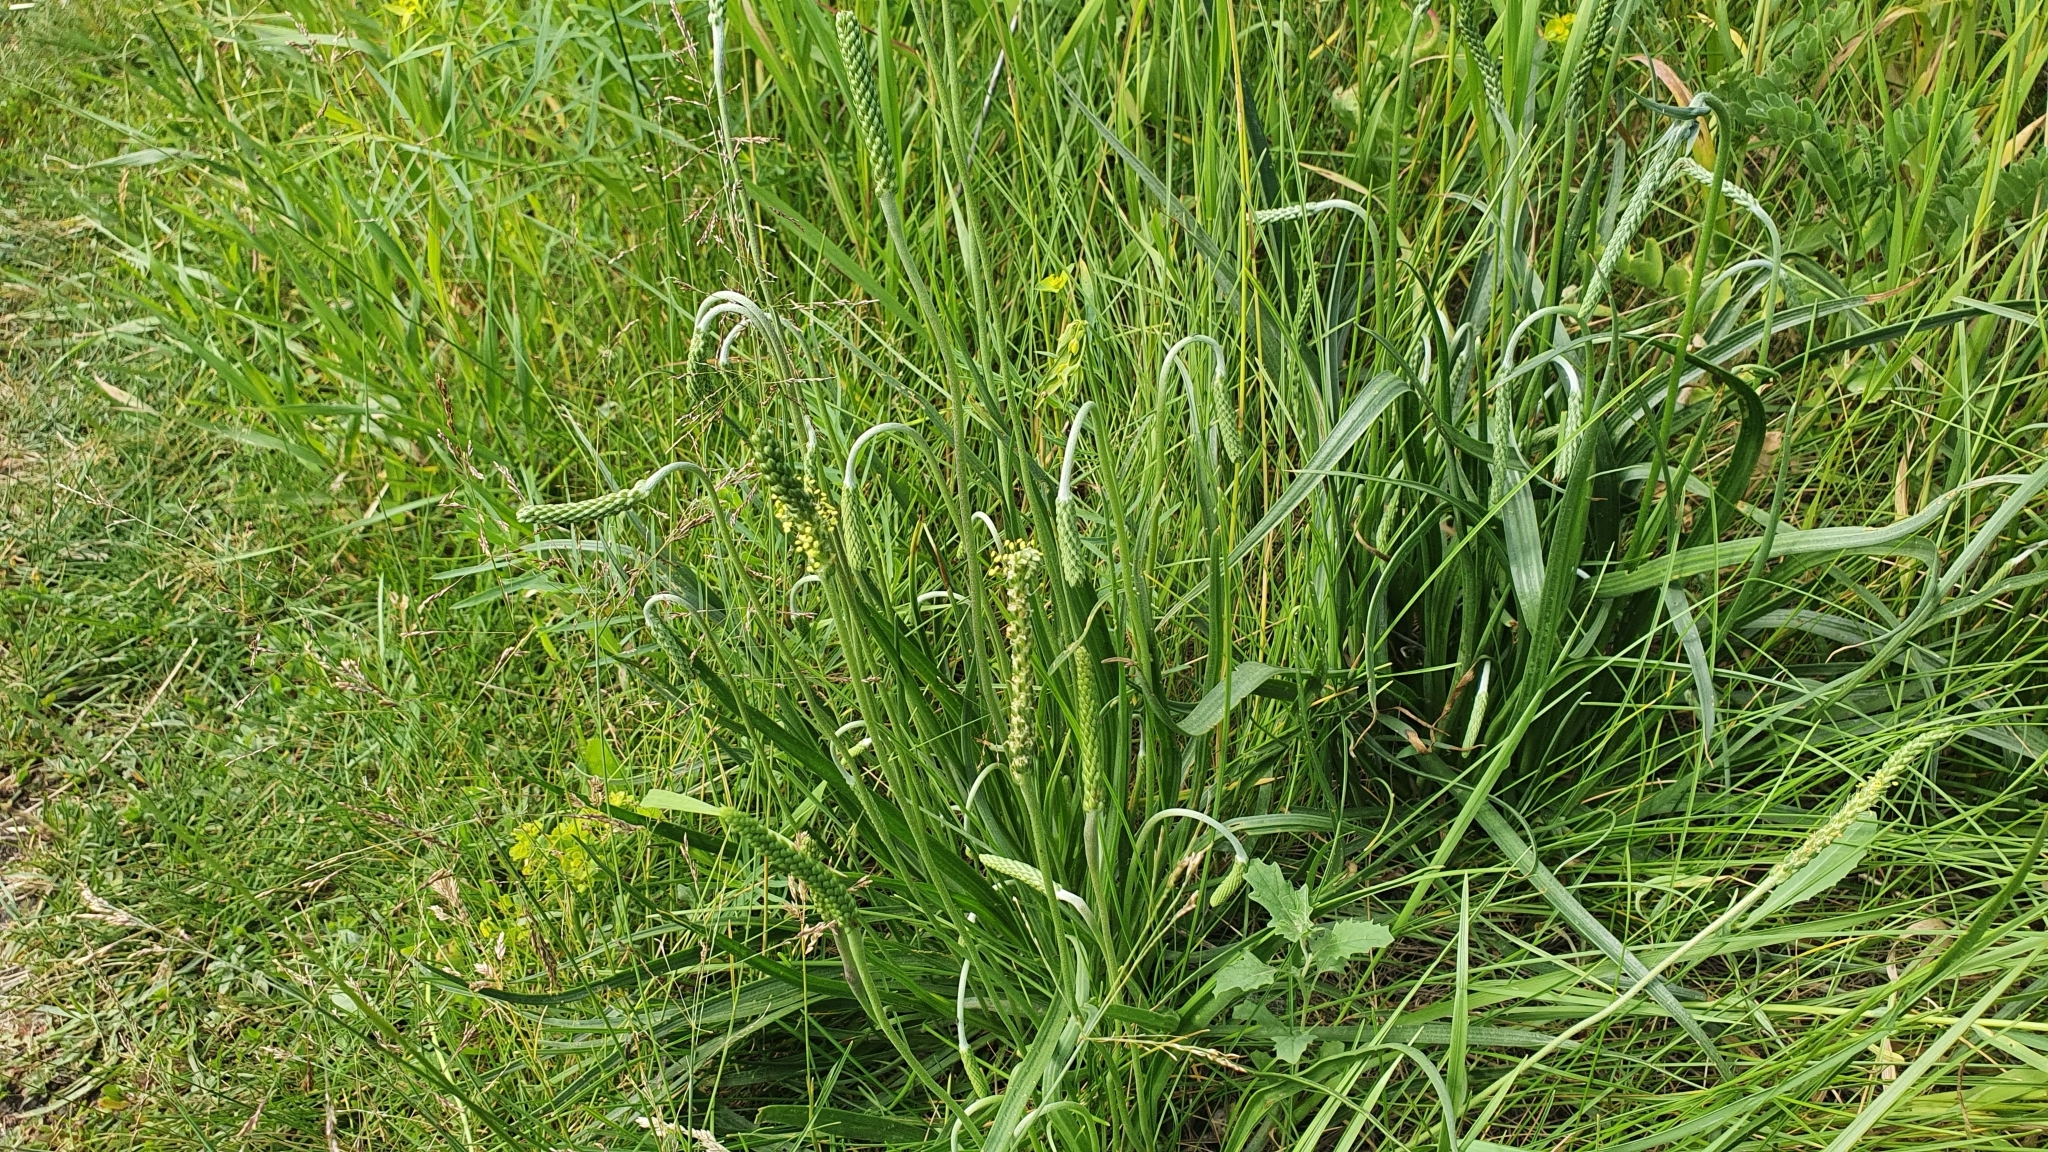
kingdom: Plantae
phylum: Tracheophyta
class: Magnoliopsida
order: Lamiales
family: Plantaginaceae
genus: Plantago
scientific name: Plantago salsa
